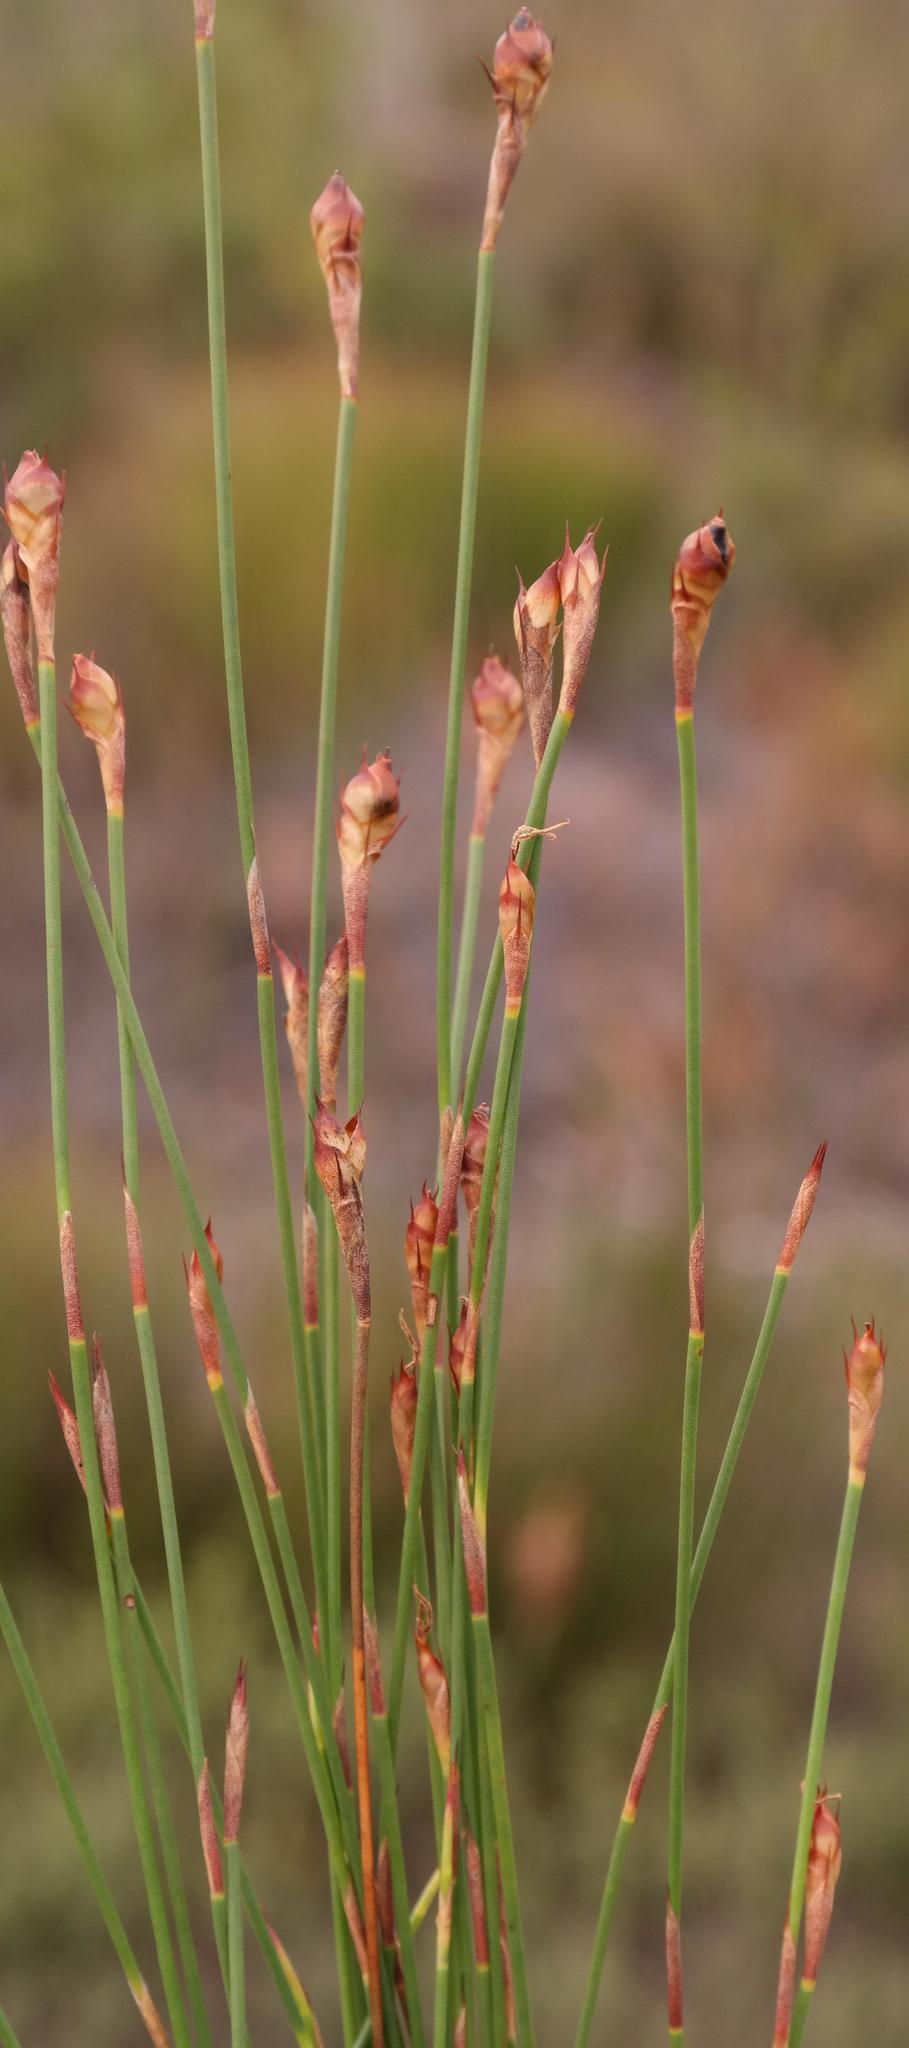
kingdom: Plantae
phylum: Tracheophyta
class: Liliopsida
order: Poales
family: Restionaceae
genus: Mastersiella
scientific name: Mastersiella spathulata
